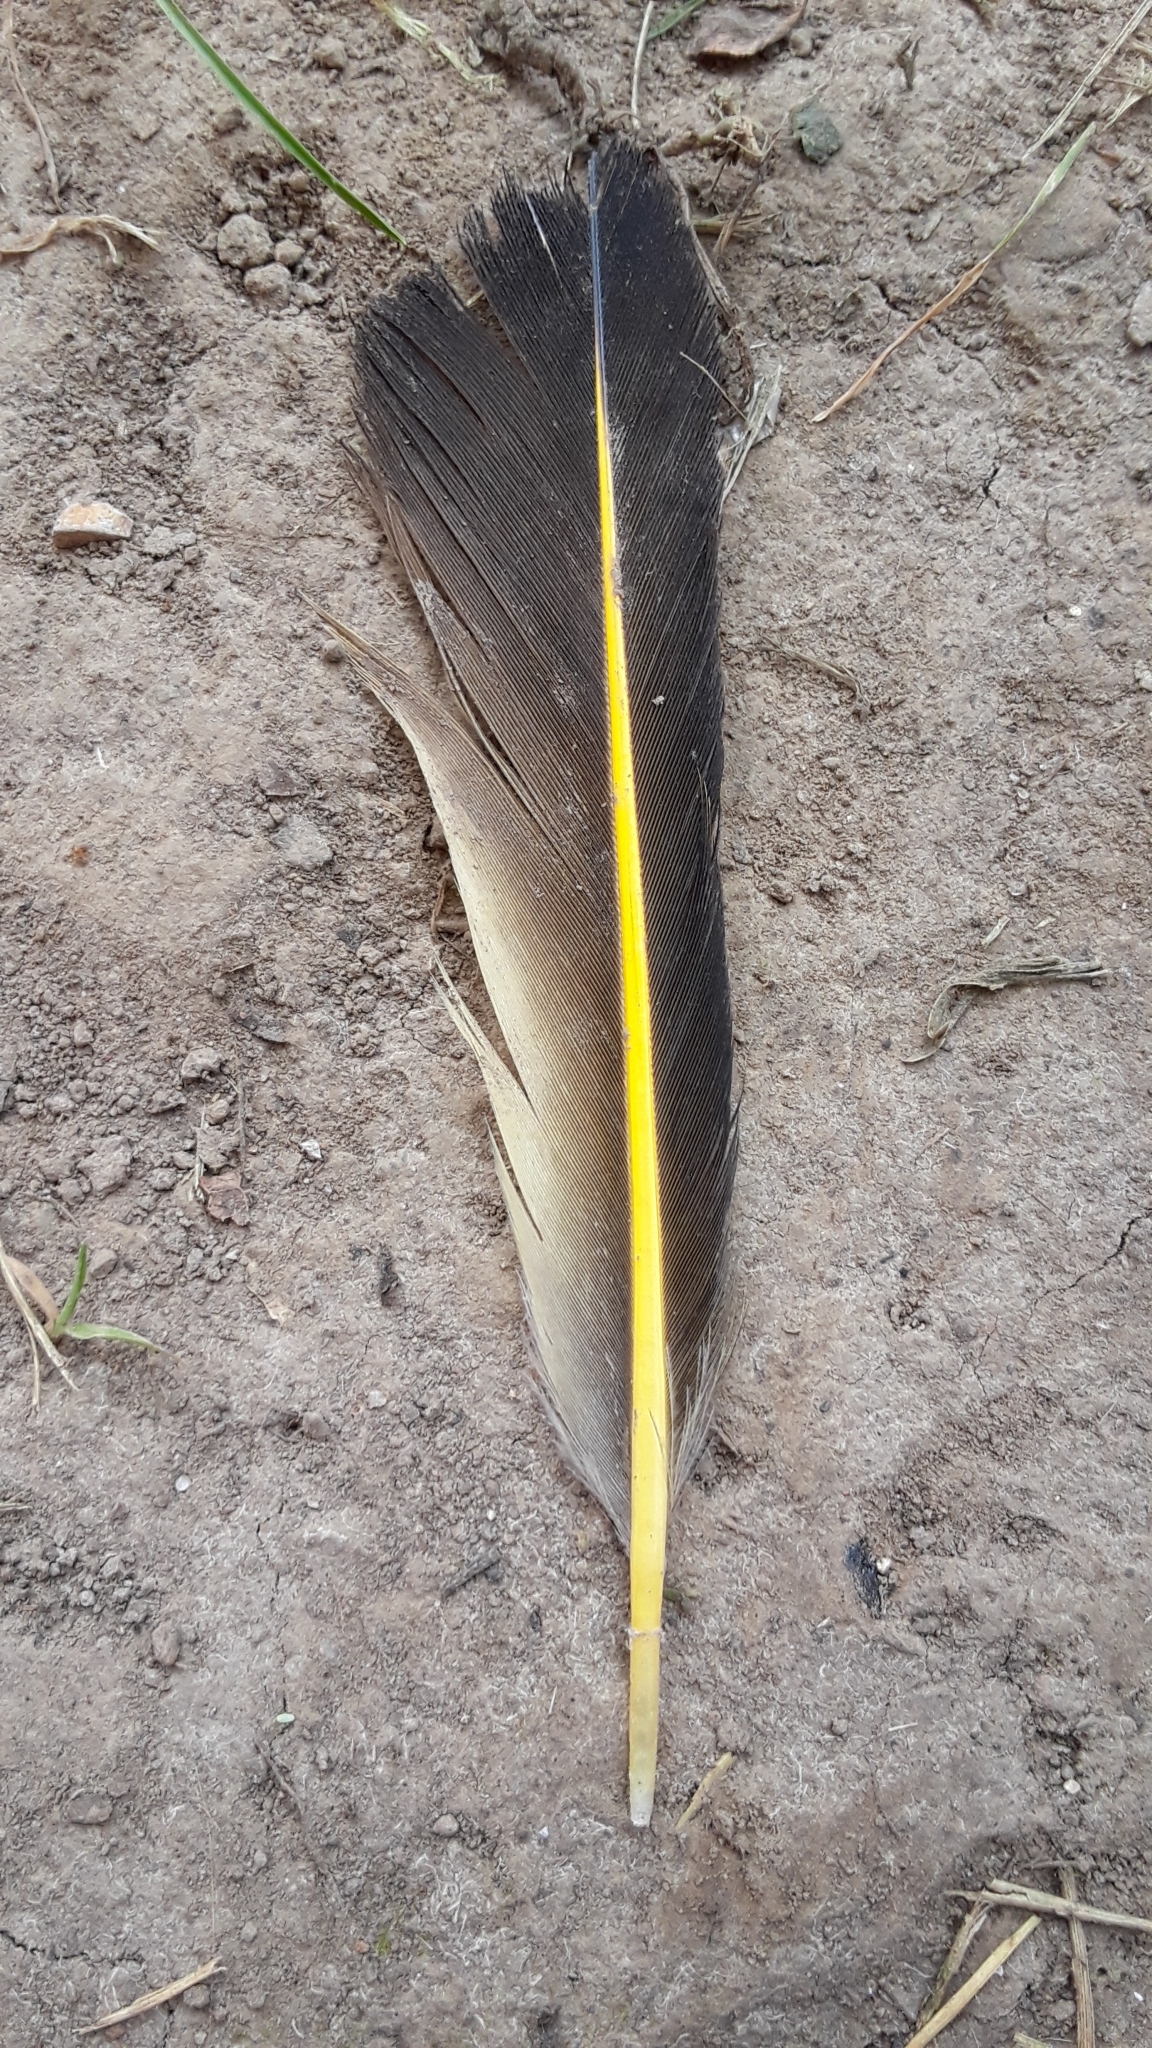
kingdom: Animalia
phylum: Chordata
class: Aves
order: Piciformes
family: Picidae
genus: Colaptes
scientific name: Colaptes auratus
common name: Northern flicker
